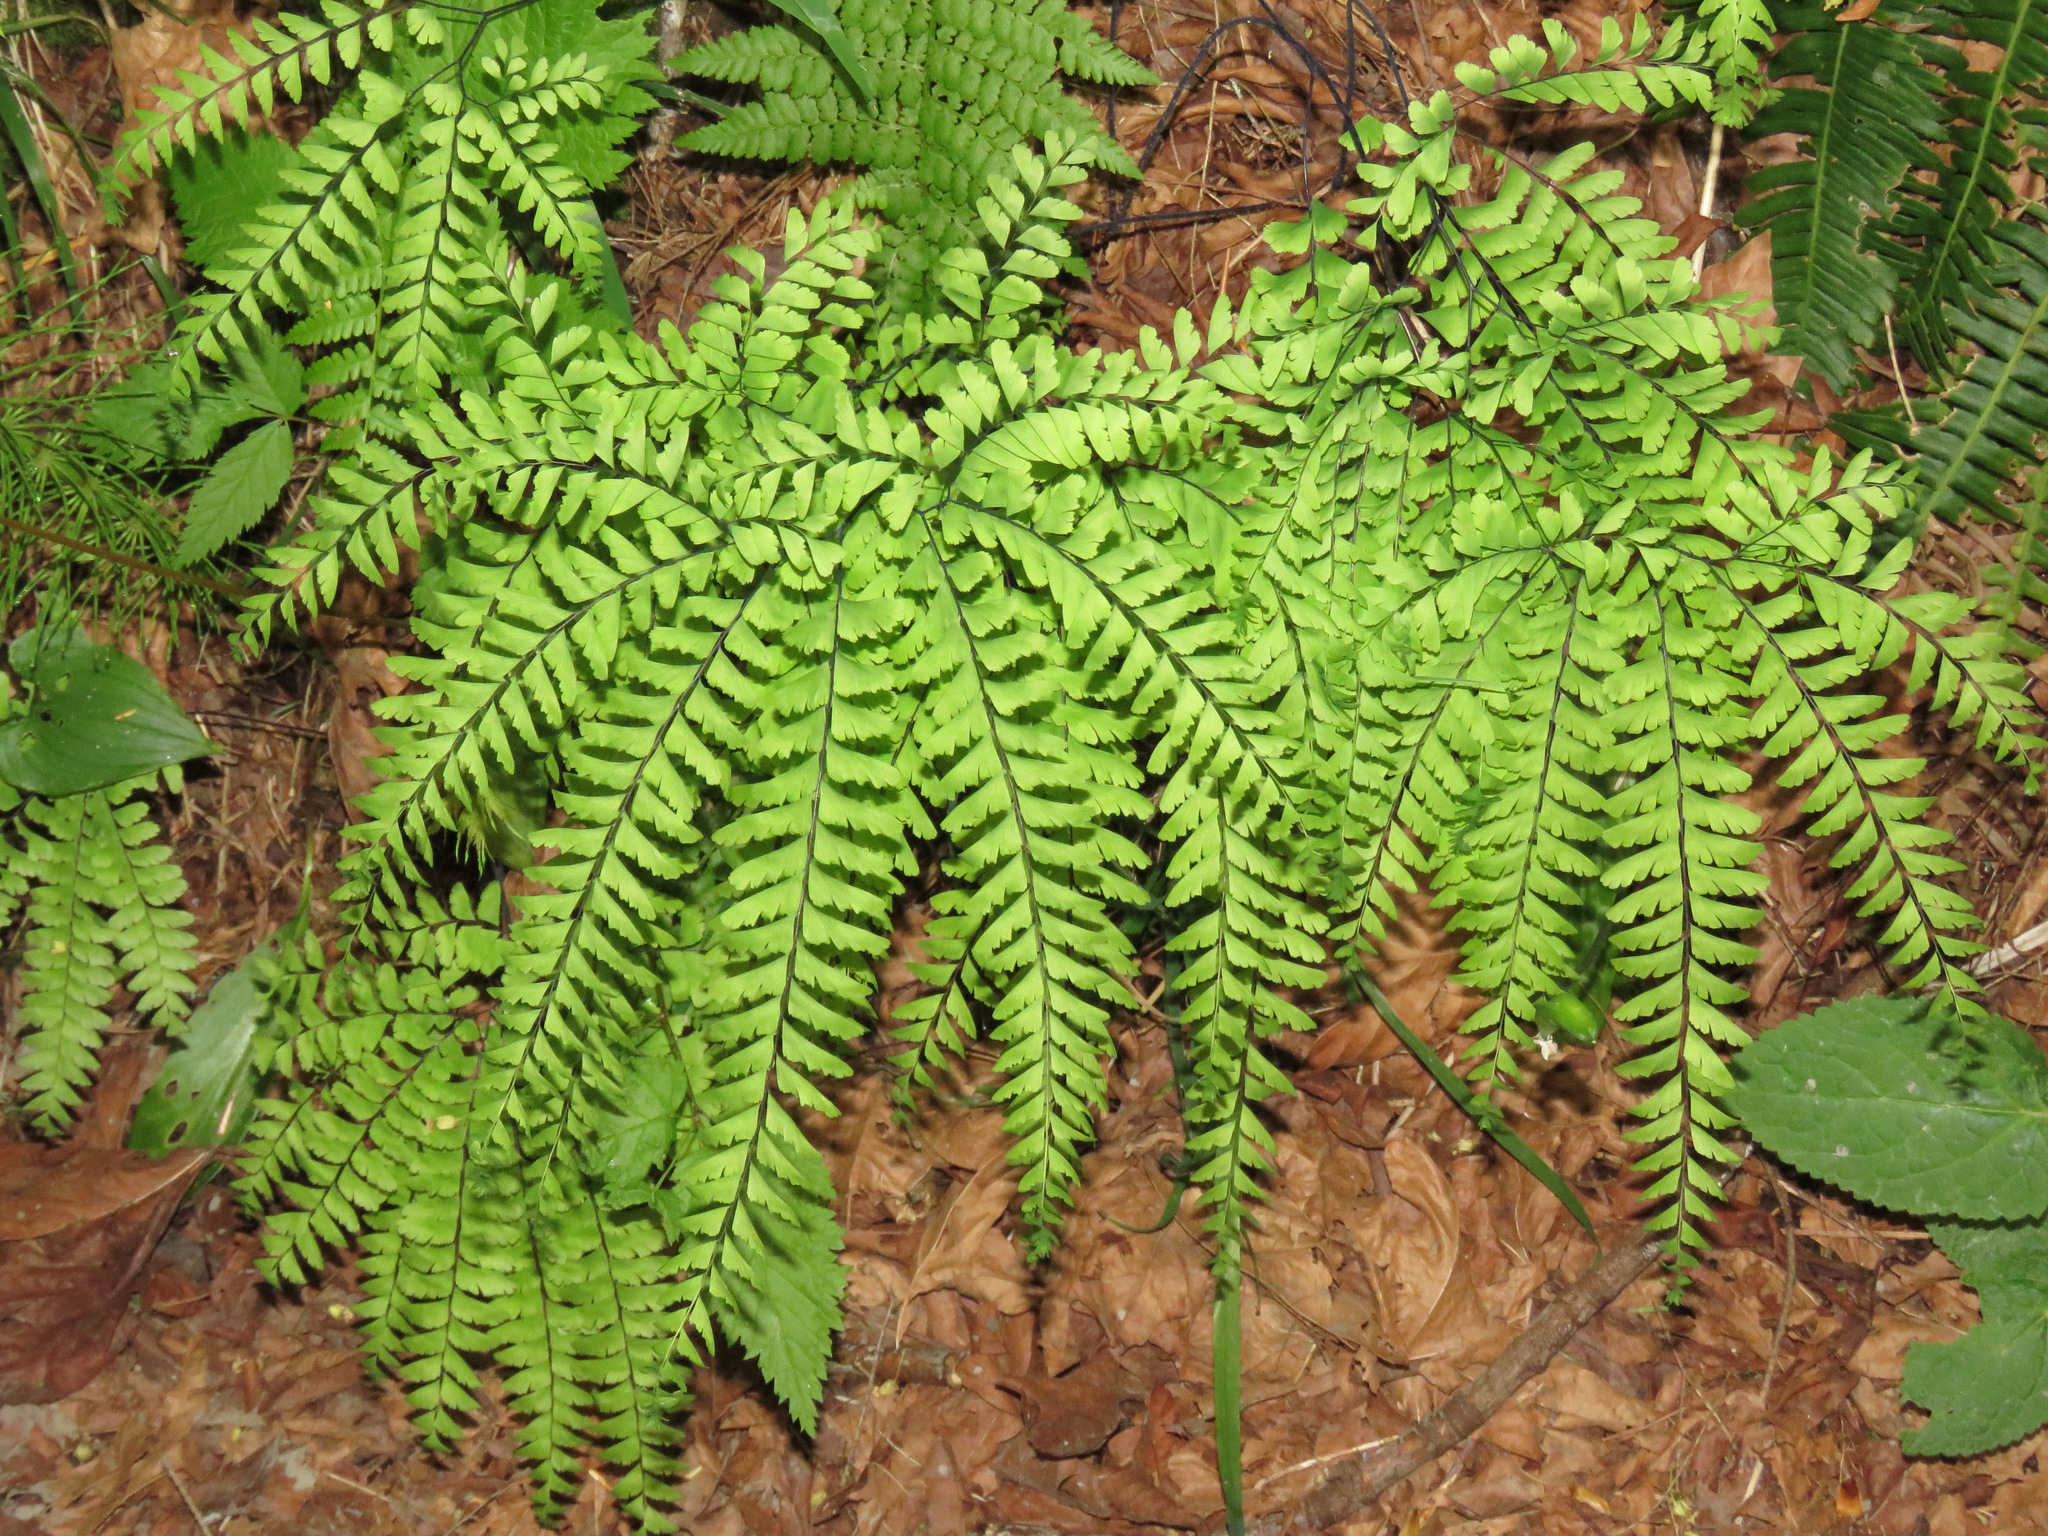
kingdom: Plantae
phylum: Tracheophyta
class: Polypodiopsida
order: Polypodiales
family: Pteridaceae
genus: Adiantum
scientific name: Adiantum aleuticum
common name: Aleutian maidenhair fern
